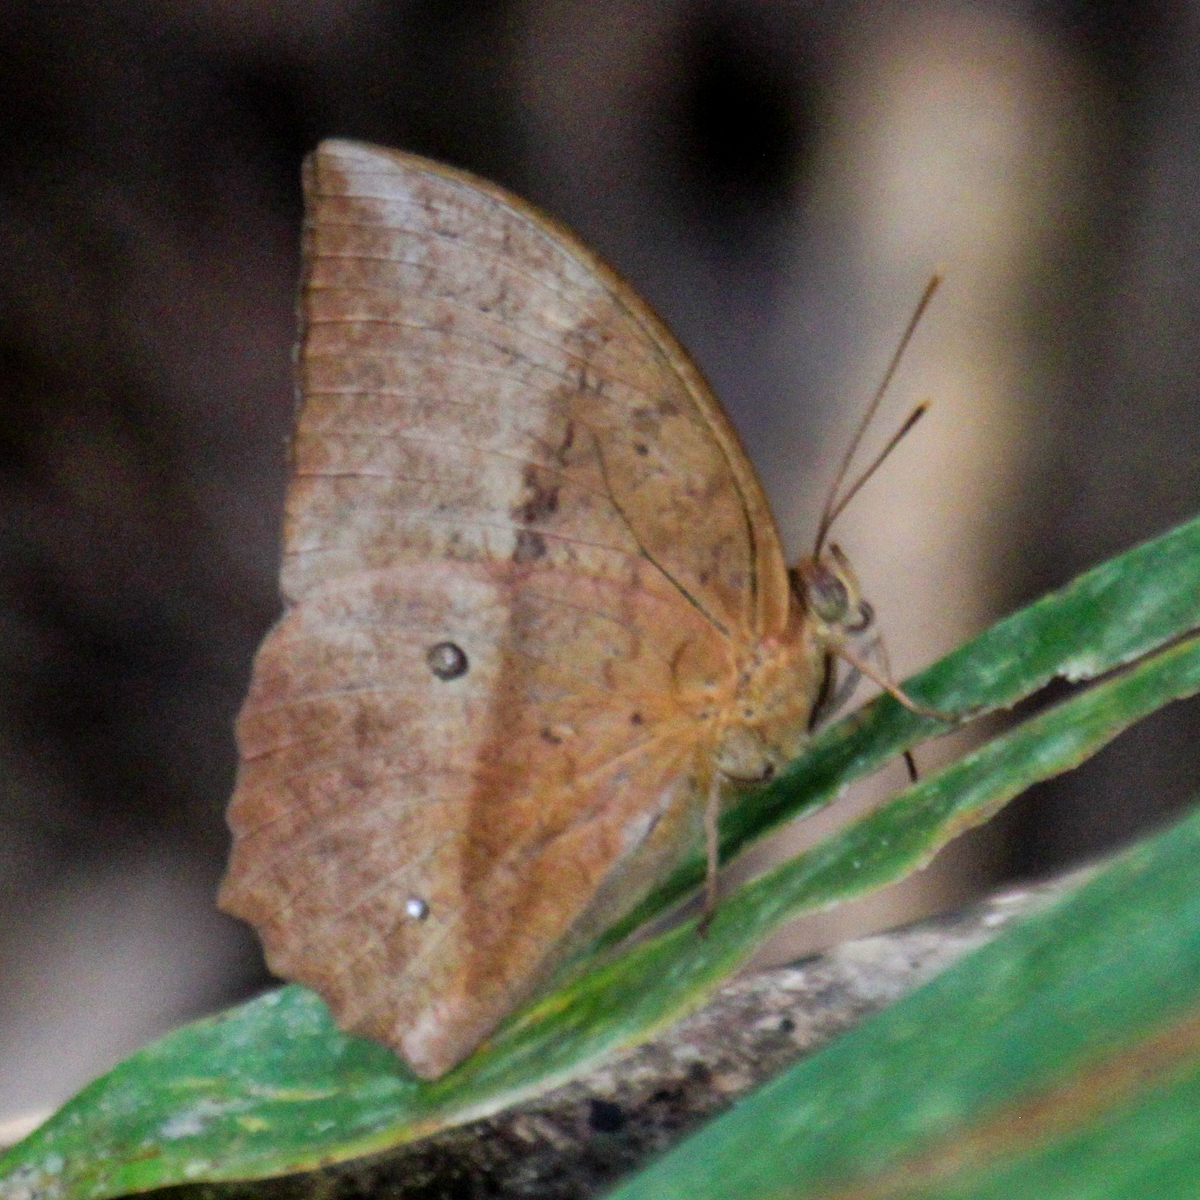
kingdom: Animalia
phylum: Arthropoda
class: Insecta
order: Lepidoptera
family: Nymphalidae
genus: Discophora
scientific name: Discophora sondaica
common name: Common duffer
